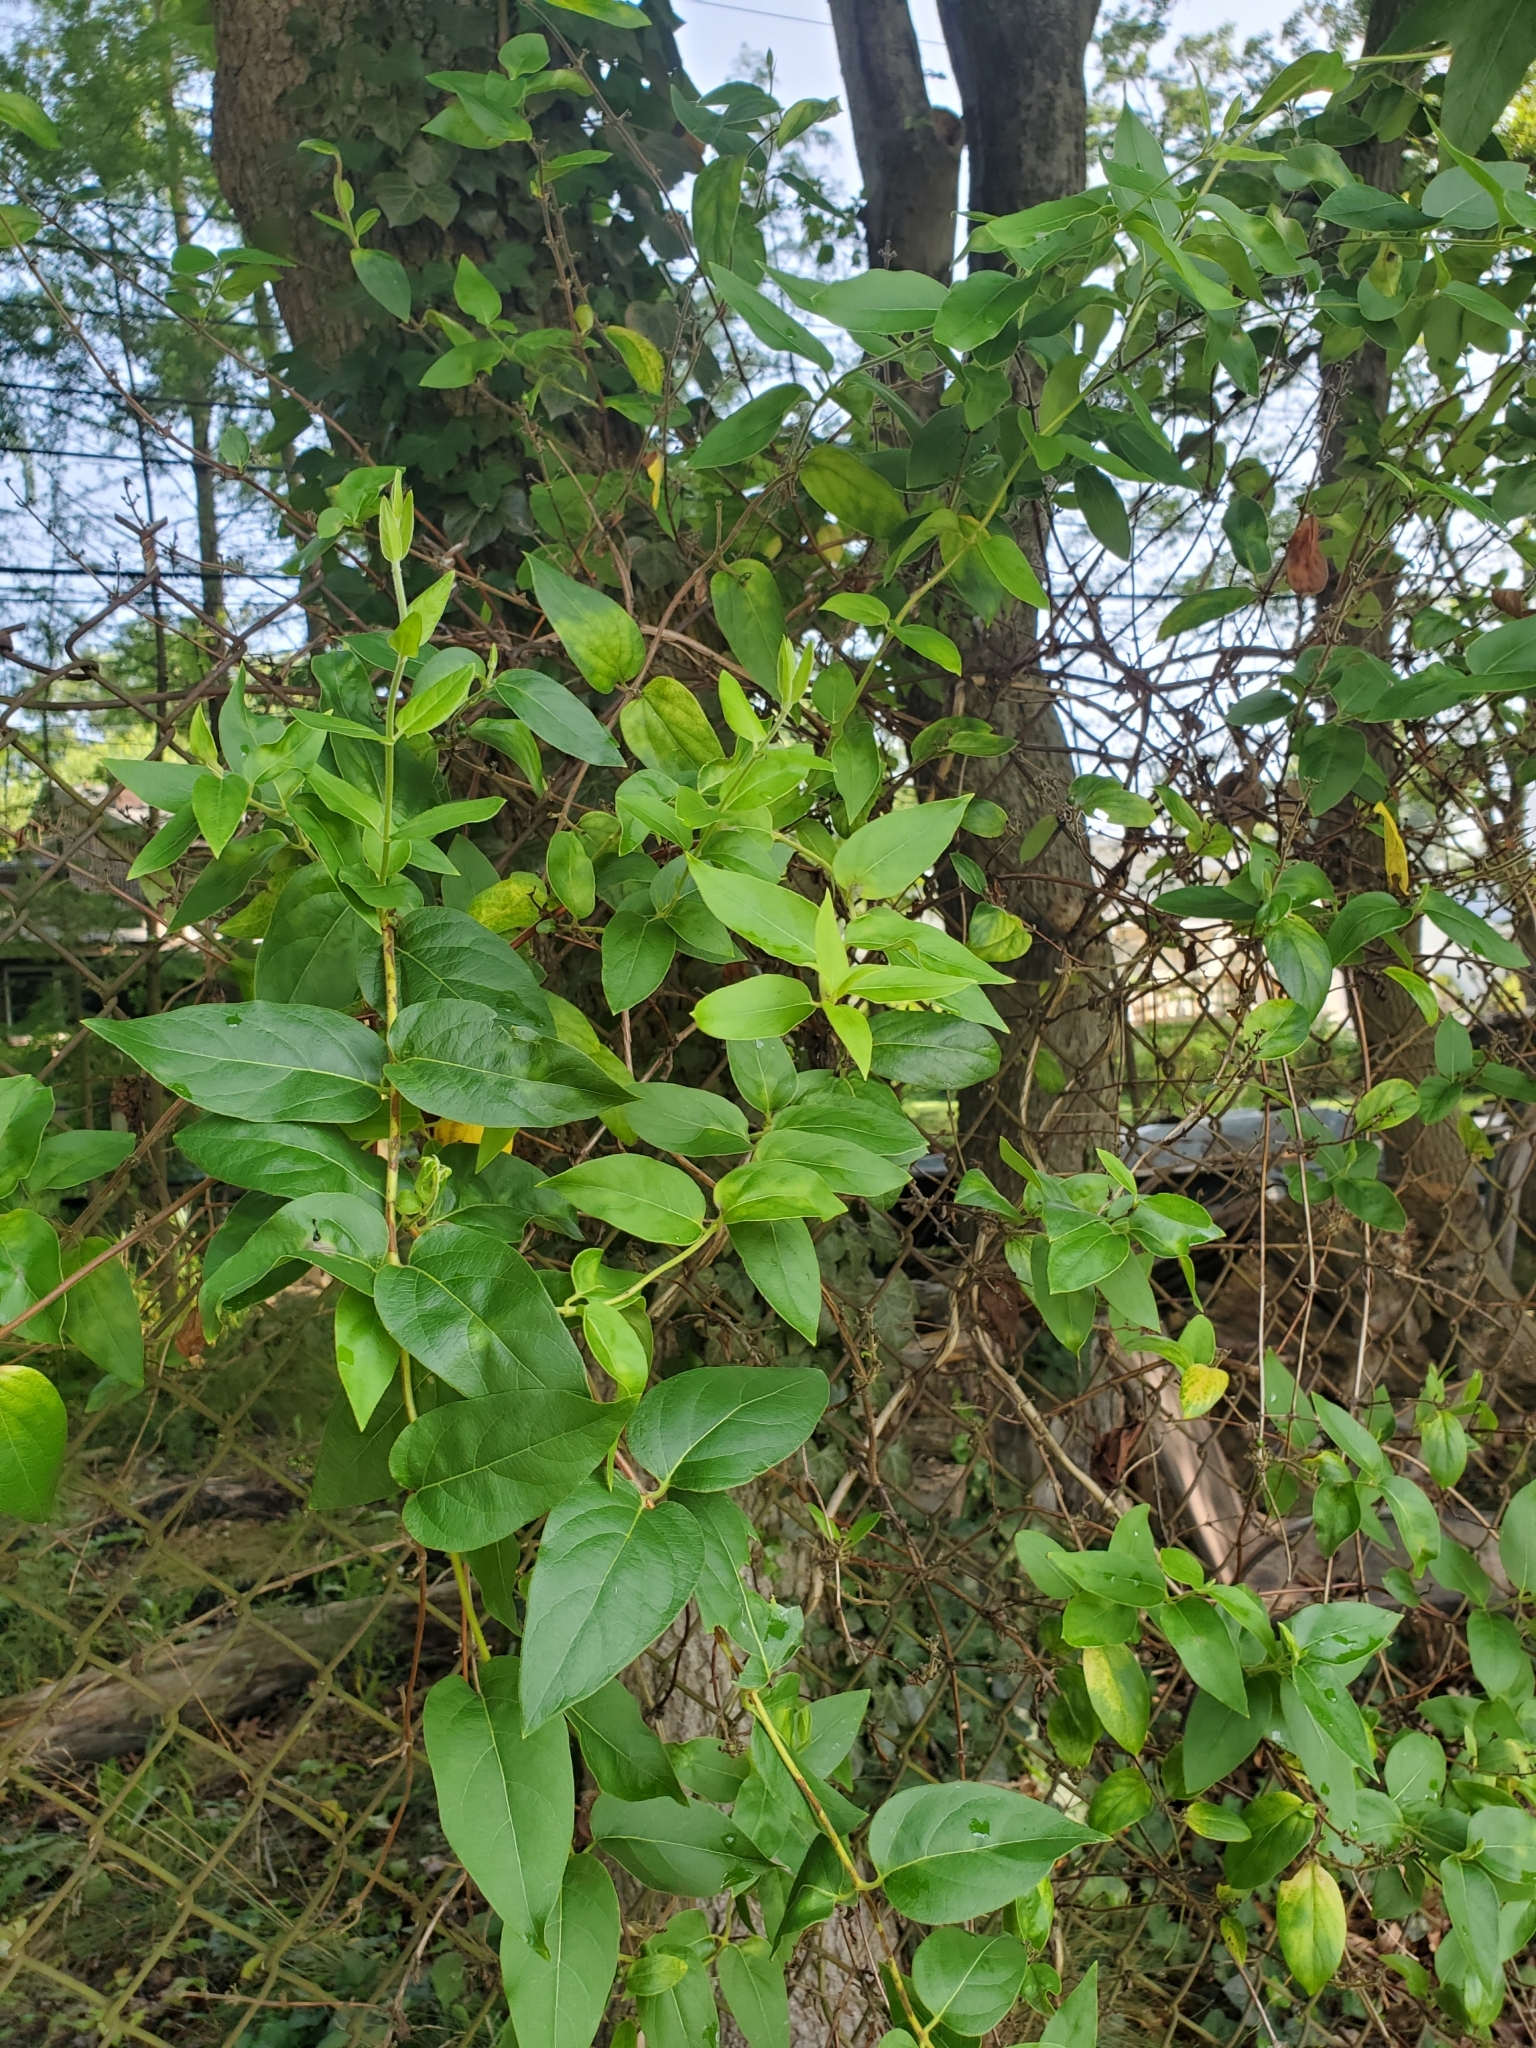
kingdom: Plantae
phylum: Tracheophyta
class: Magnoliopsida
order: Dipsacales
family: Caprifoliaceae
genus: Lonicera
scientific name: Lonicera japonica
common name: Japanese honeysuckle
